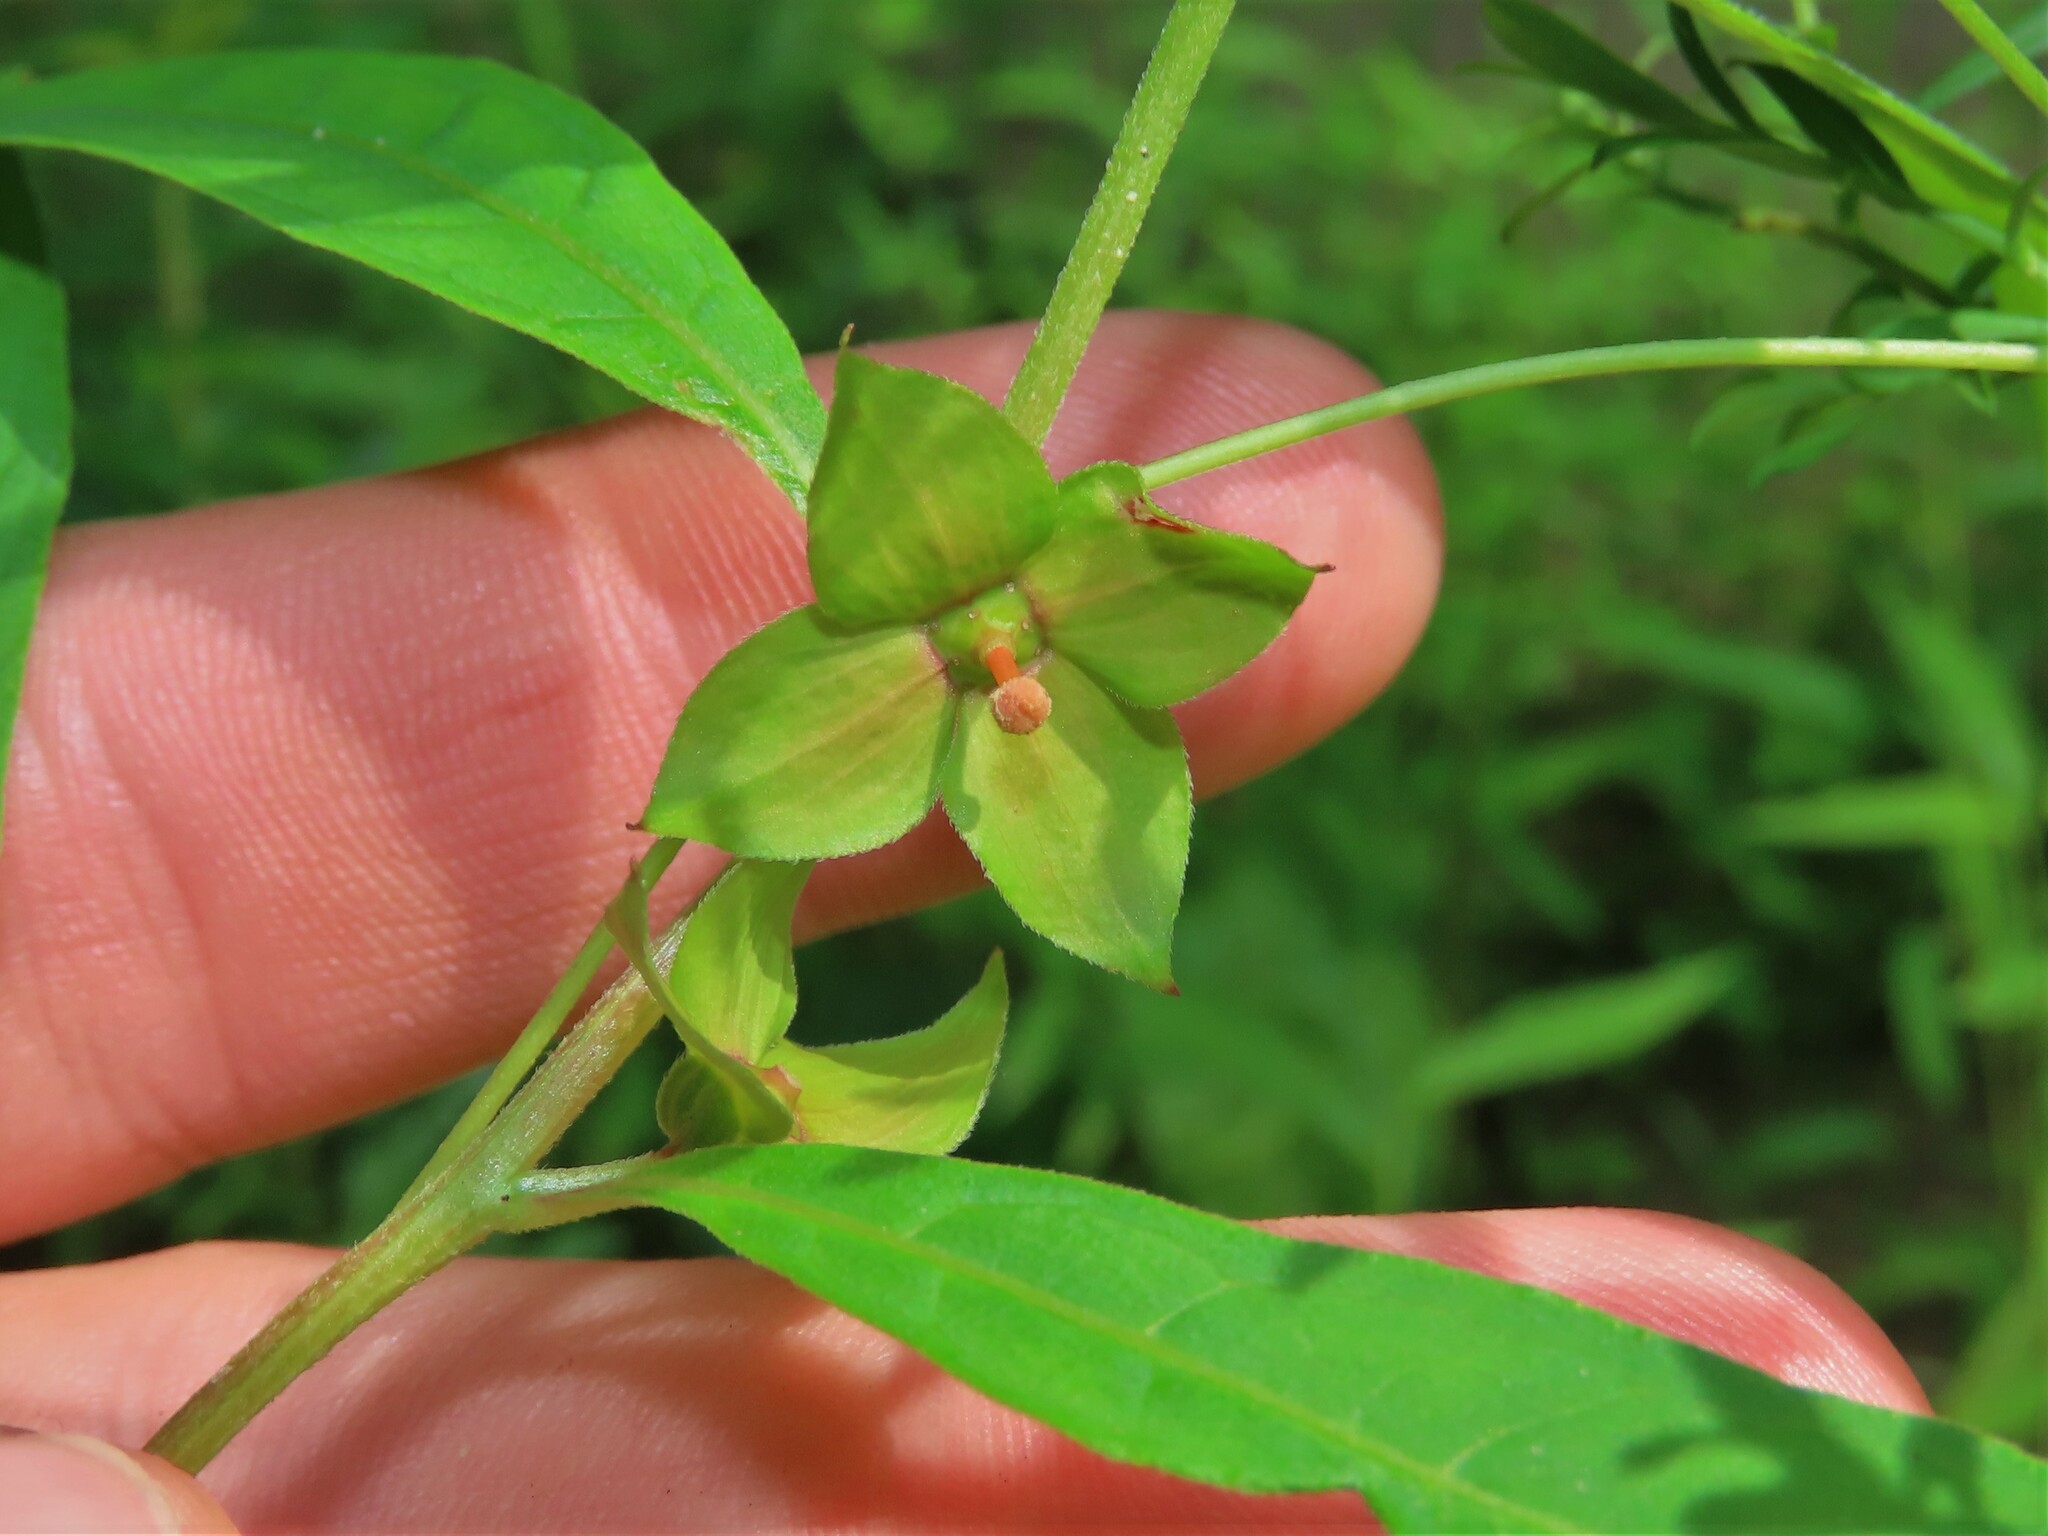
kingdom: Plantae
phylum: Tracheophyta
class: Magnoliopsida
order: Myrtales
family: Onagraceae
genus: Ludwigia
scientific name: Ludwigia alternifolia
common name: Rattlebox
